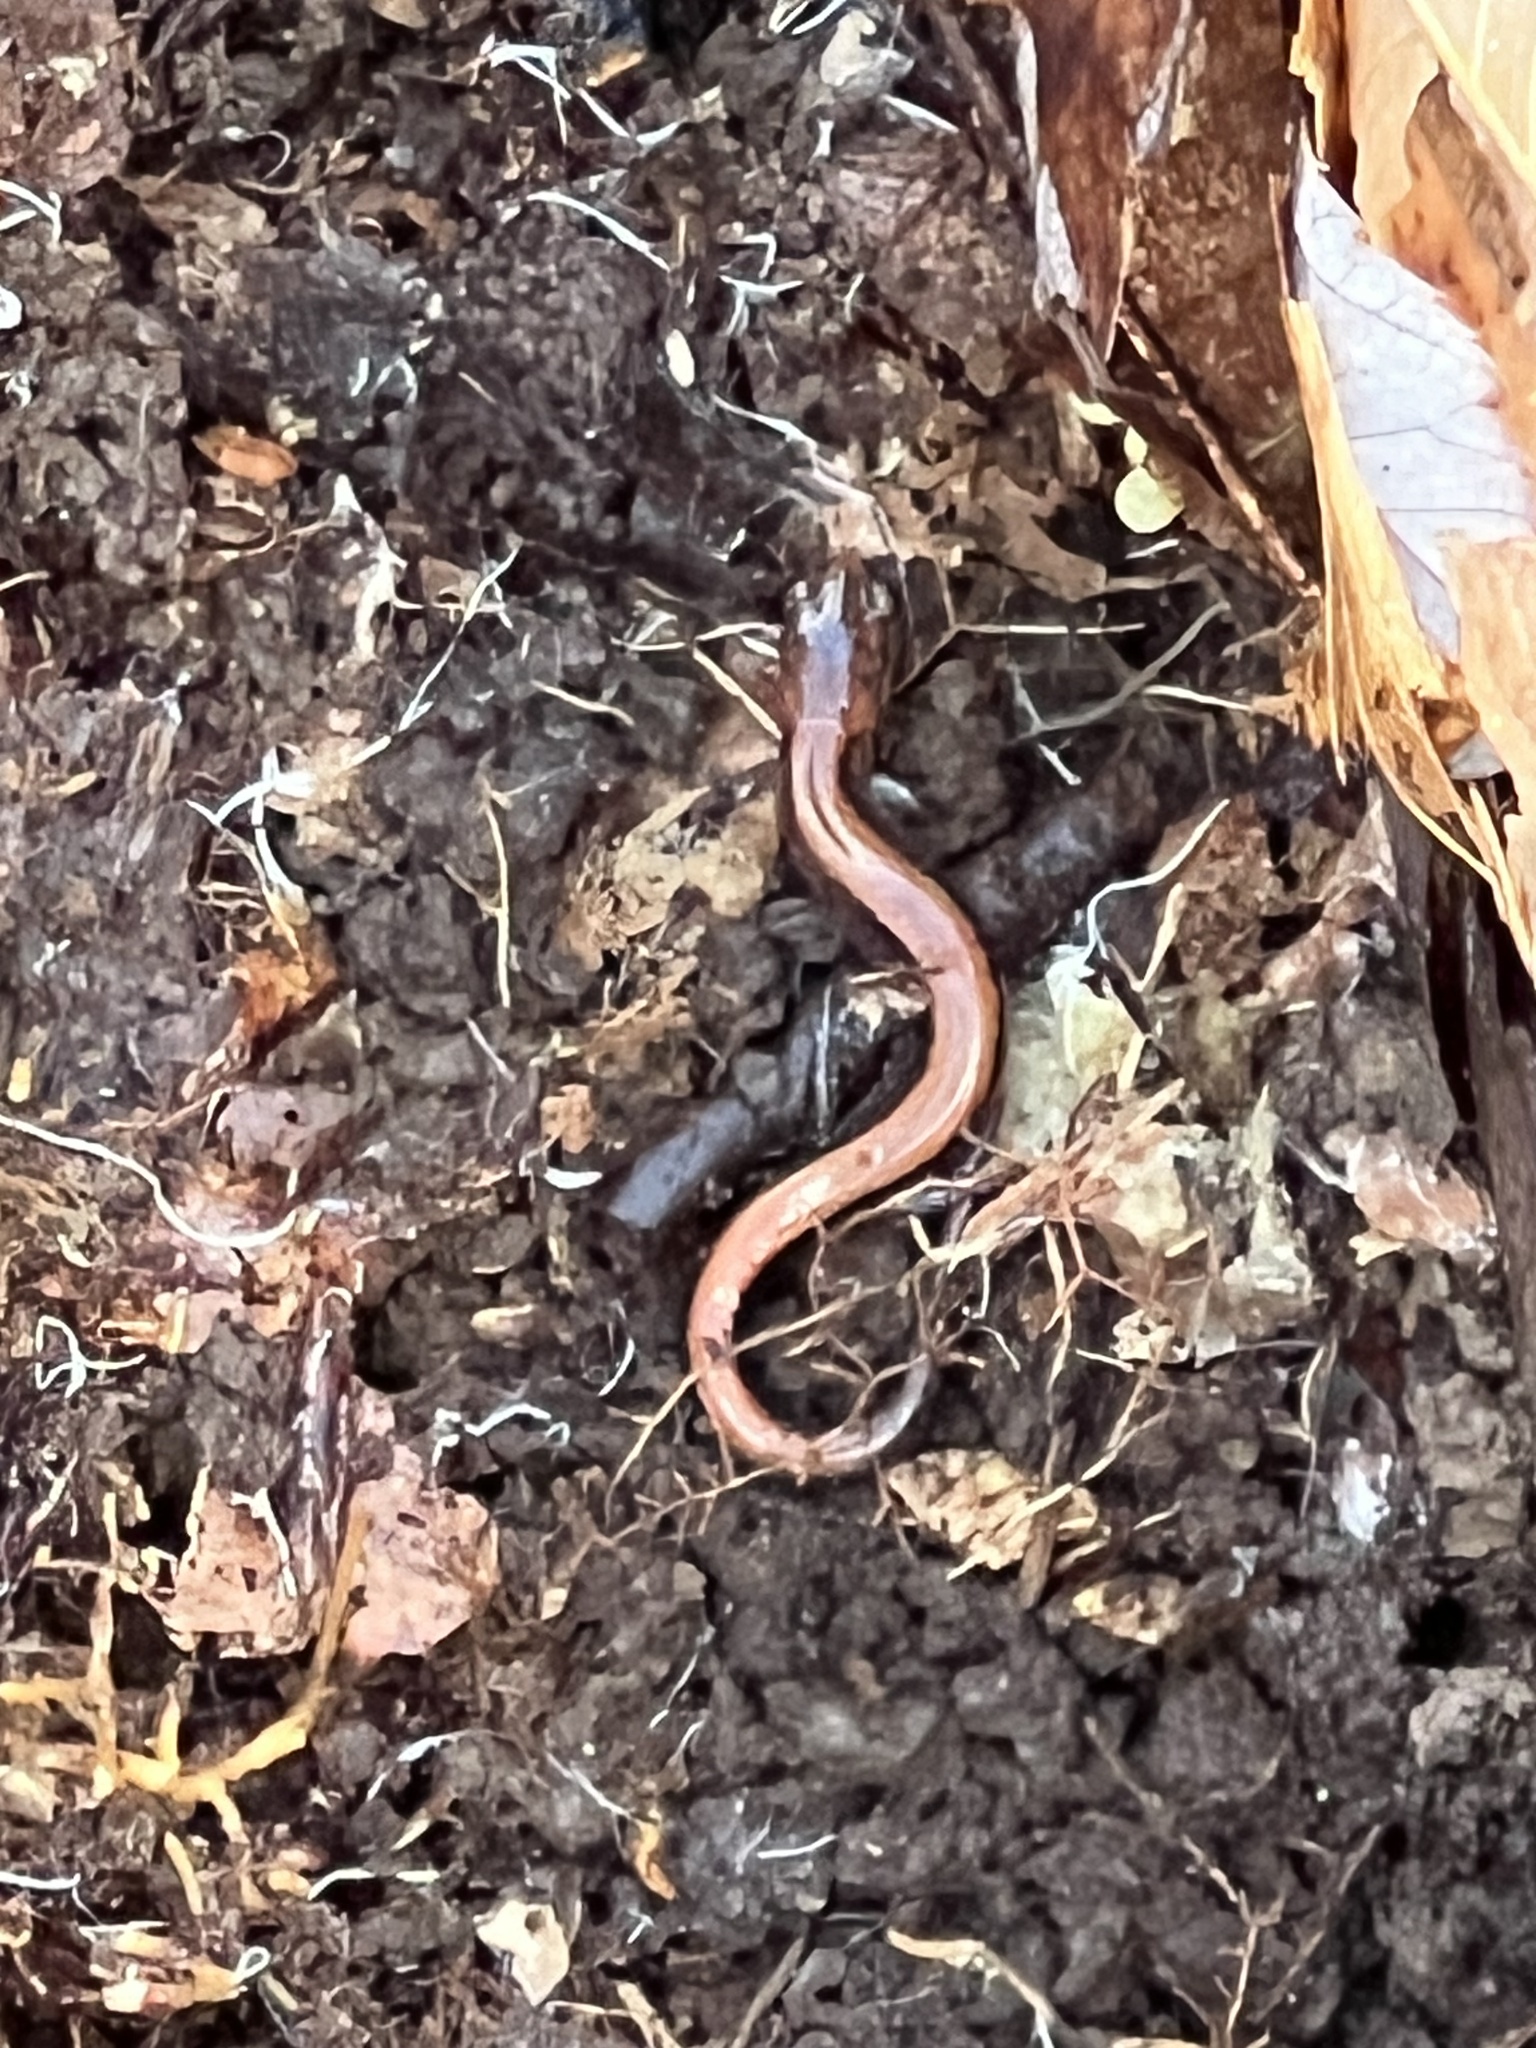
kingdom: Animalia
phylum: Chordata
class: Amphibia
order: Caudata
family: Plethodontidae
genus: Plethodon
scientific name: Plethodon cinereus
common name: Redback salamander
